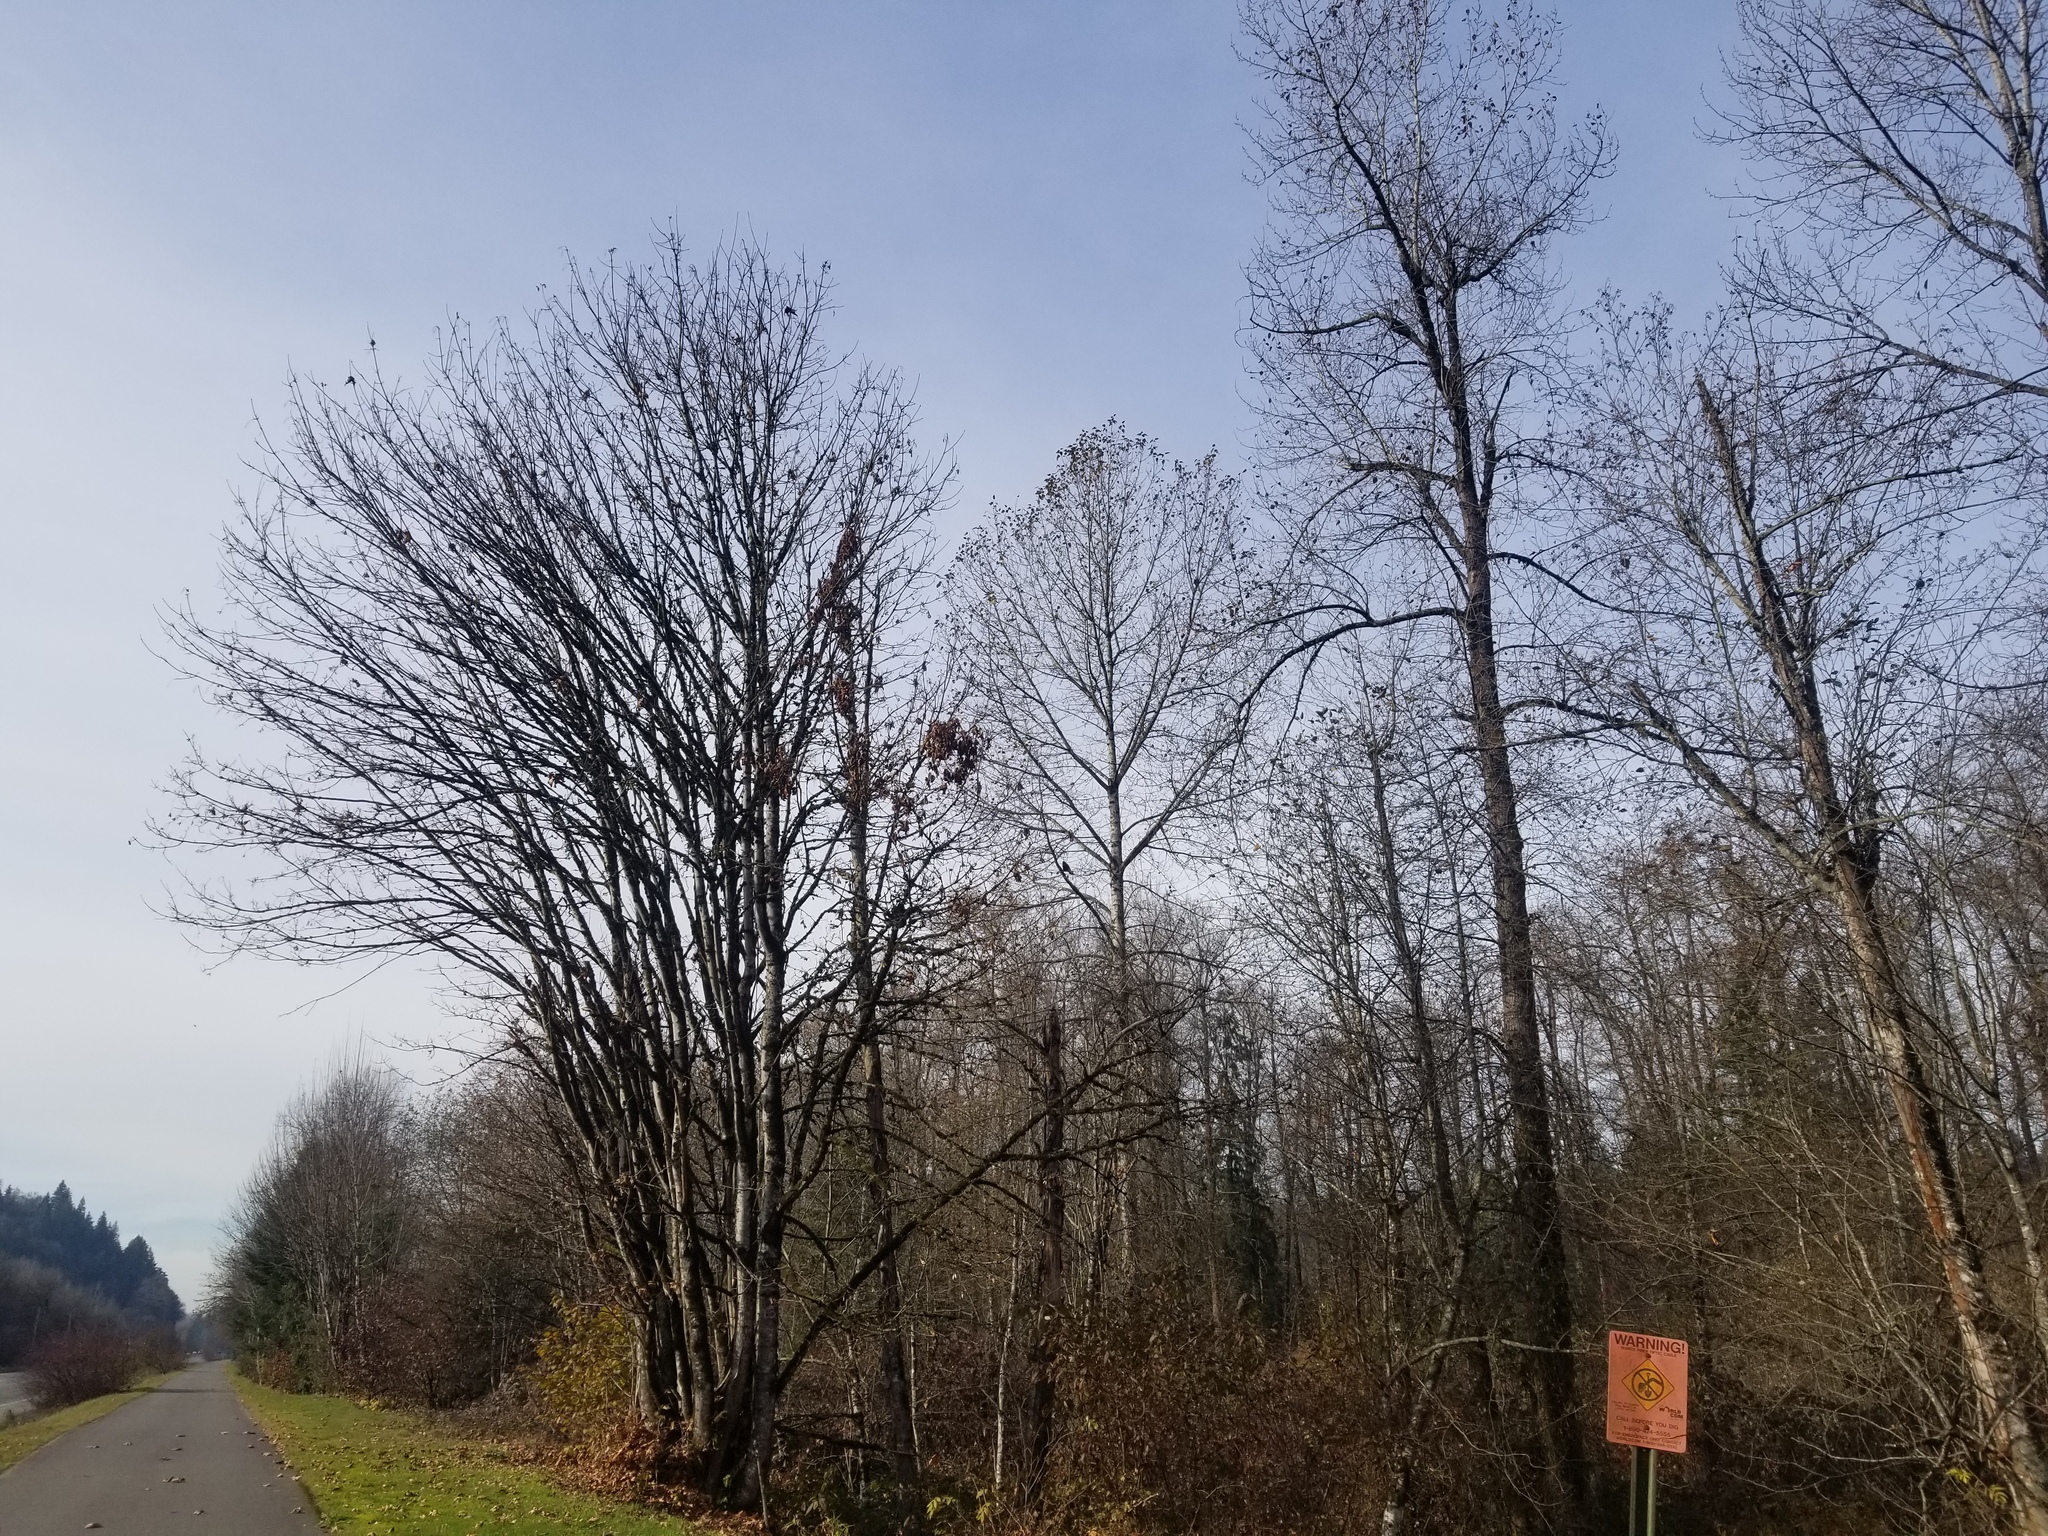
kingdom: Animalia
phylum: Chordata
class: Aves
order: Passeriformes
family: Corvidae
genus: Corvus
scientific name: Corvus brachyrhynchos
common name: American crow
